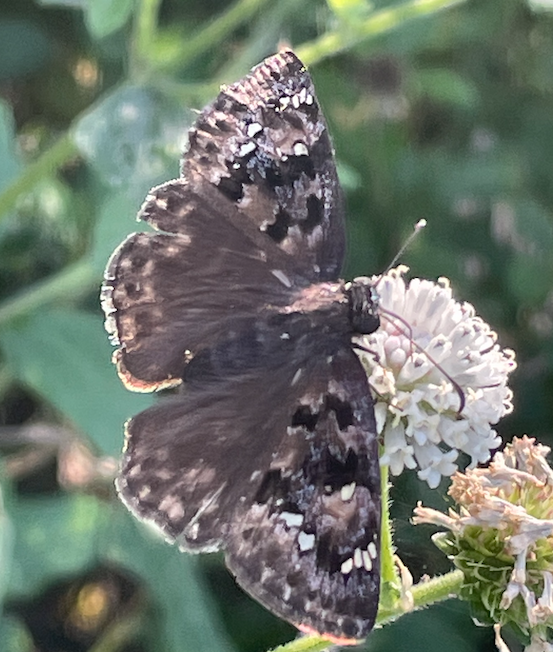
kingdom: Animalia
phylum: Arthropoda
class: Insecta
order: Lepidoptera
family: Hesperiidae
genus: Erynnis
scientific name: Erynnis horatius
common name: Horace's duskywing
